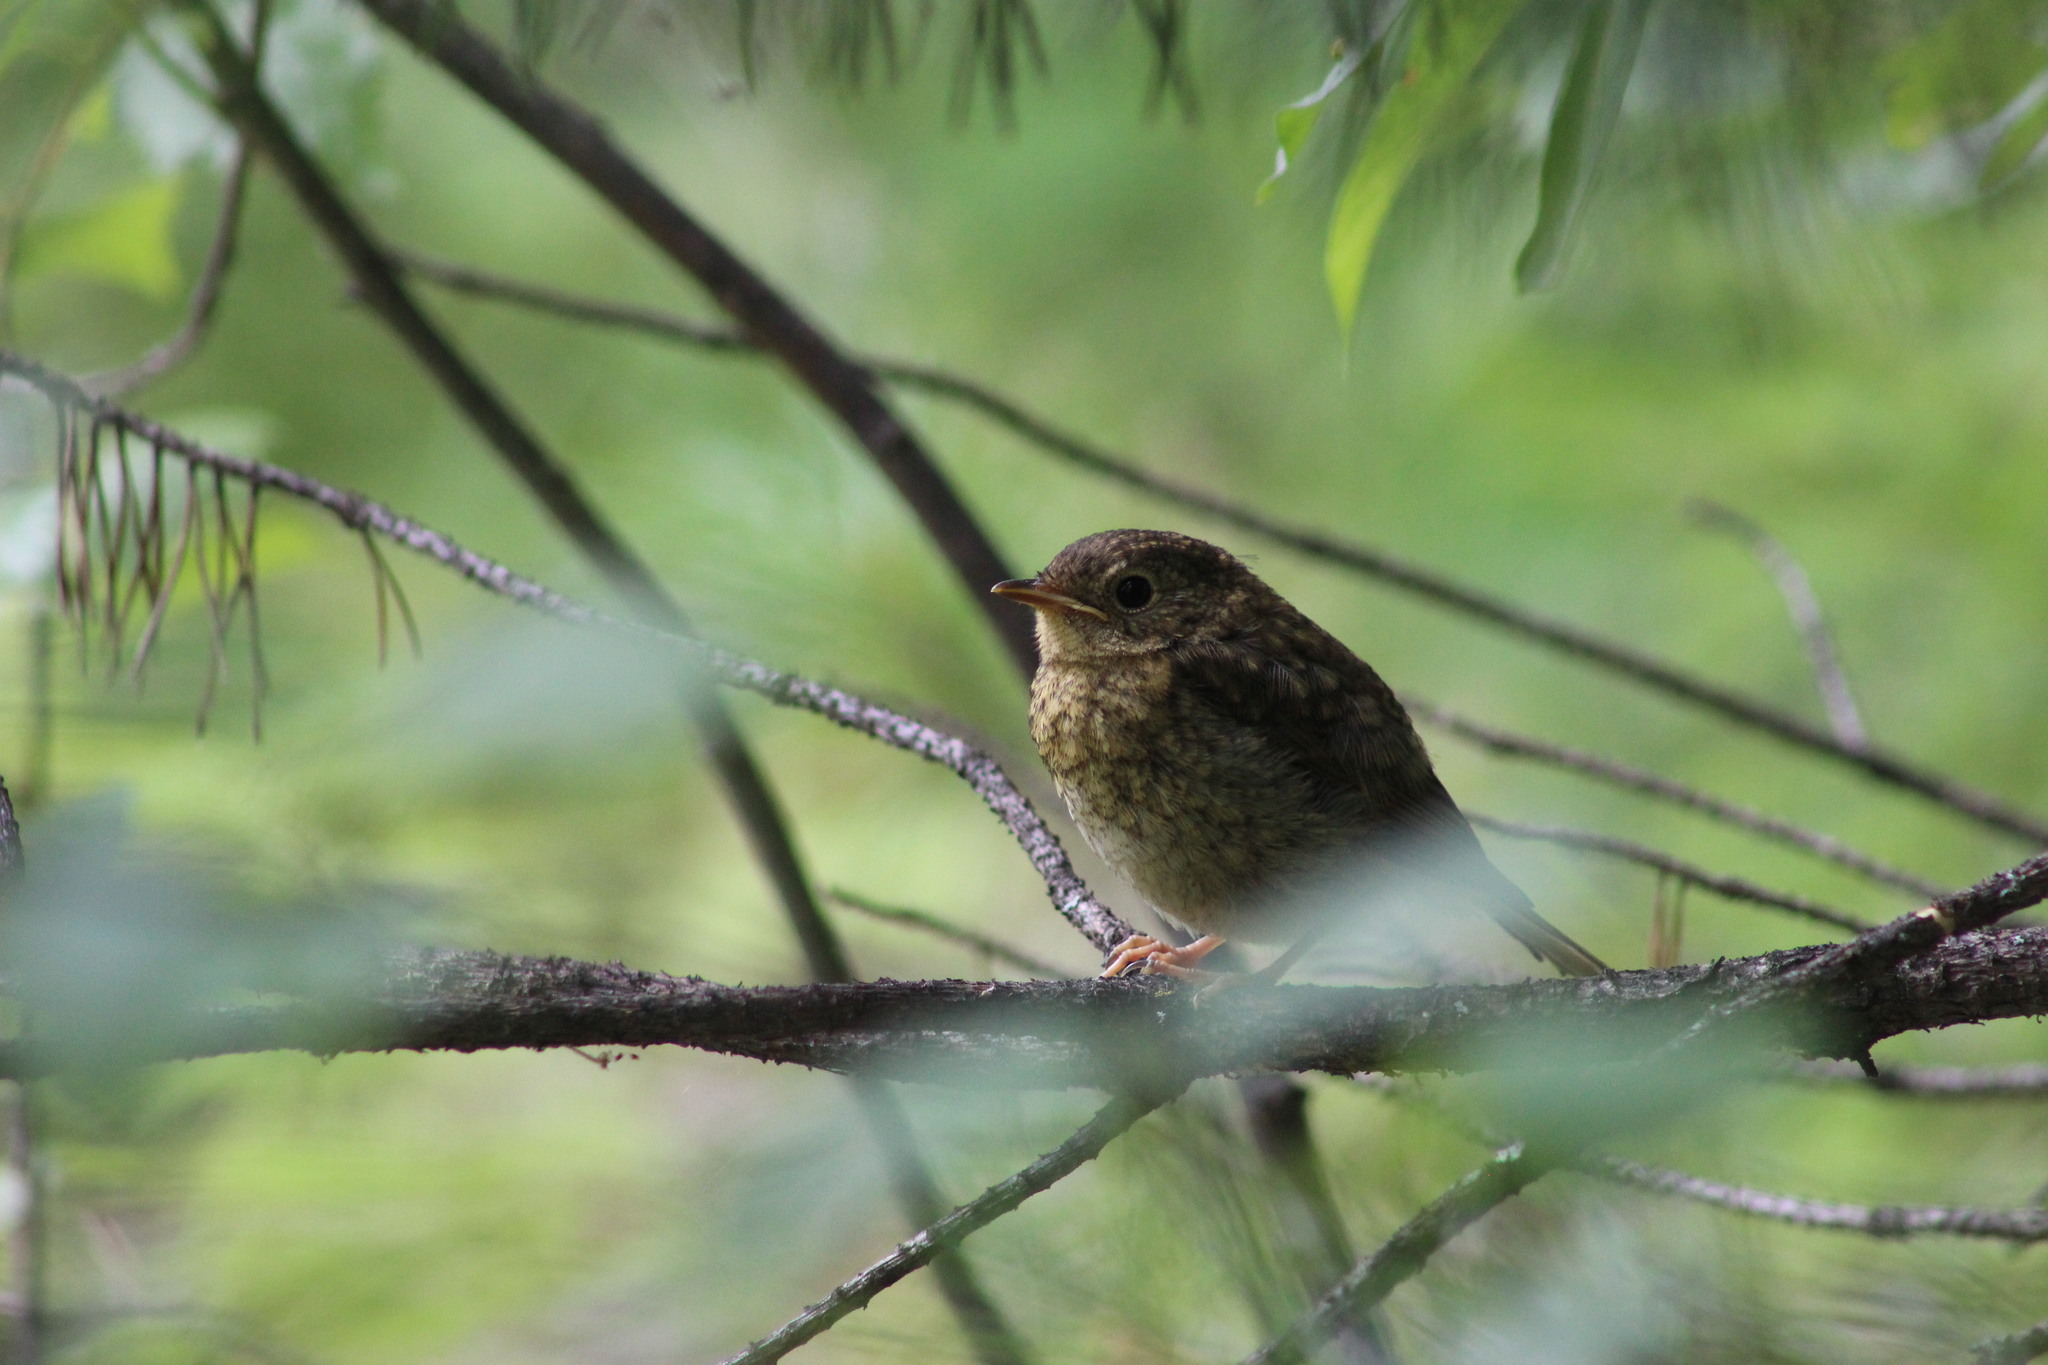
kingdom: Animalia
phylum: Chordata
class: Aves
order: Passeriformes
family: Muscicapidae
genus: Erithacus
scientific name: Erithacus rubecula
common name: European robin
